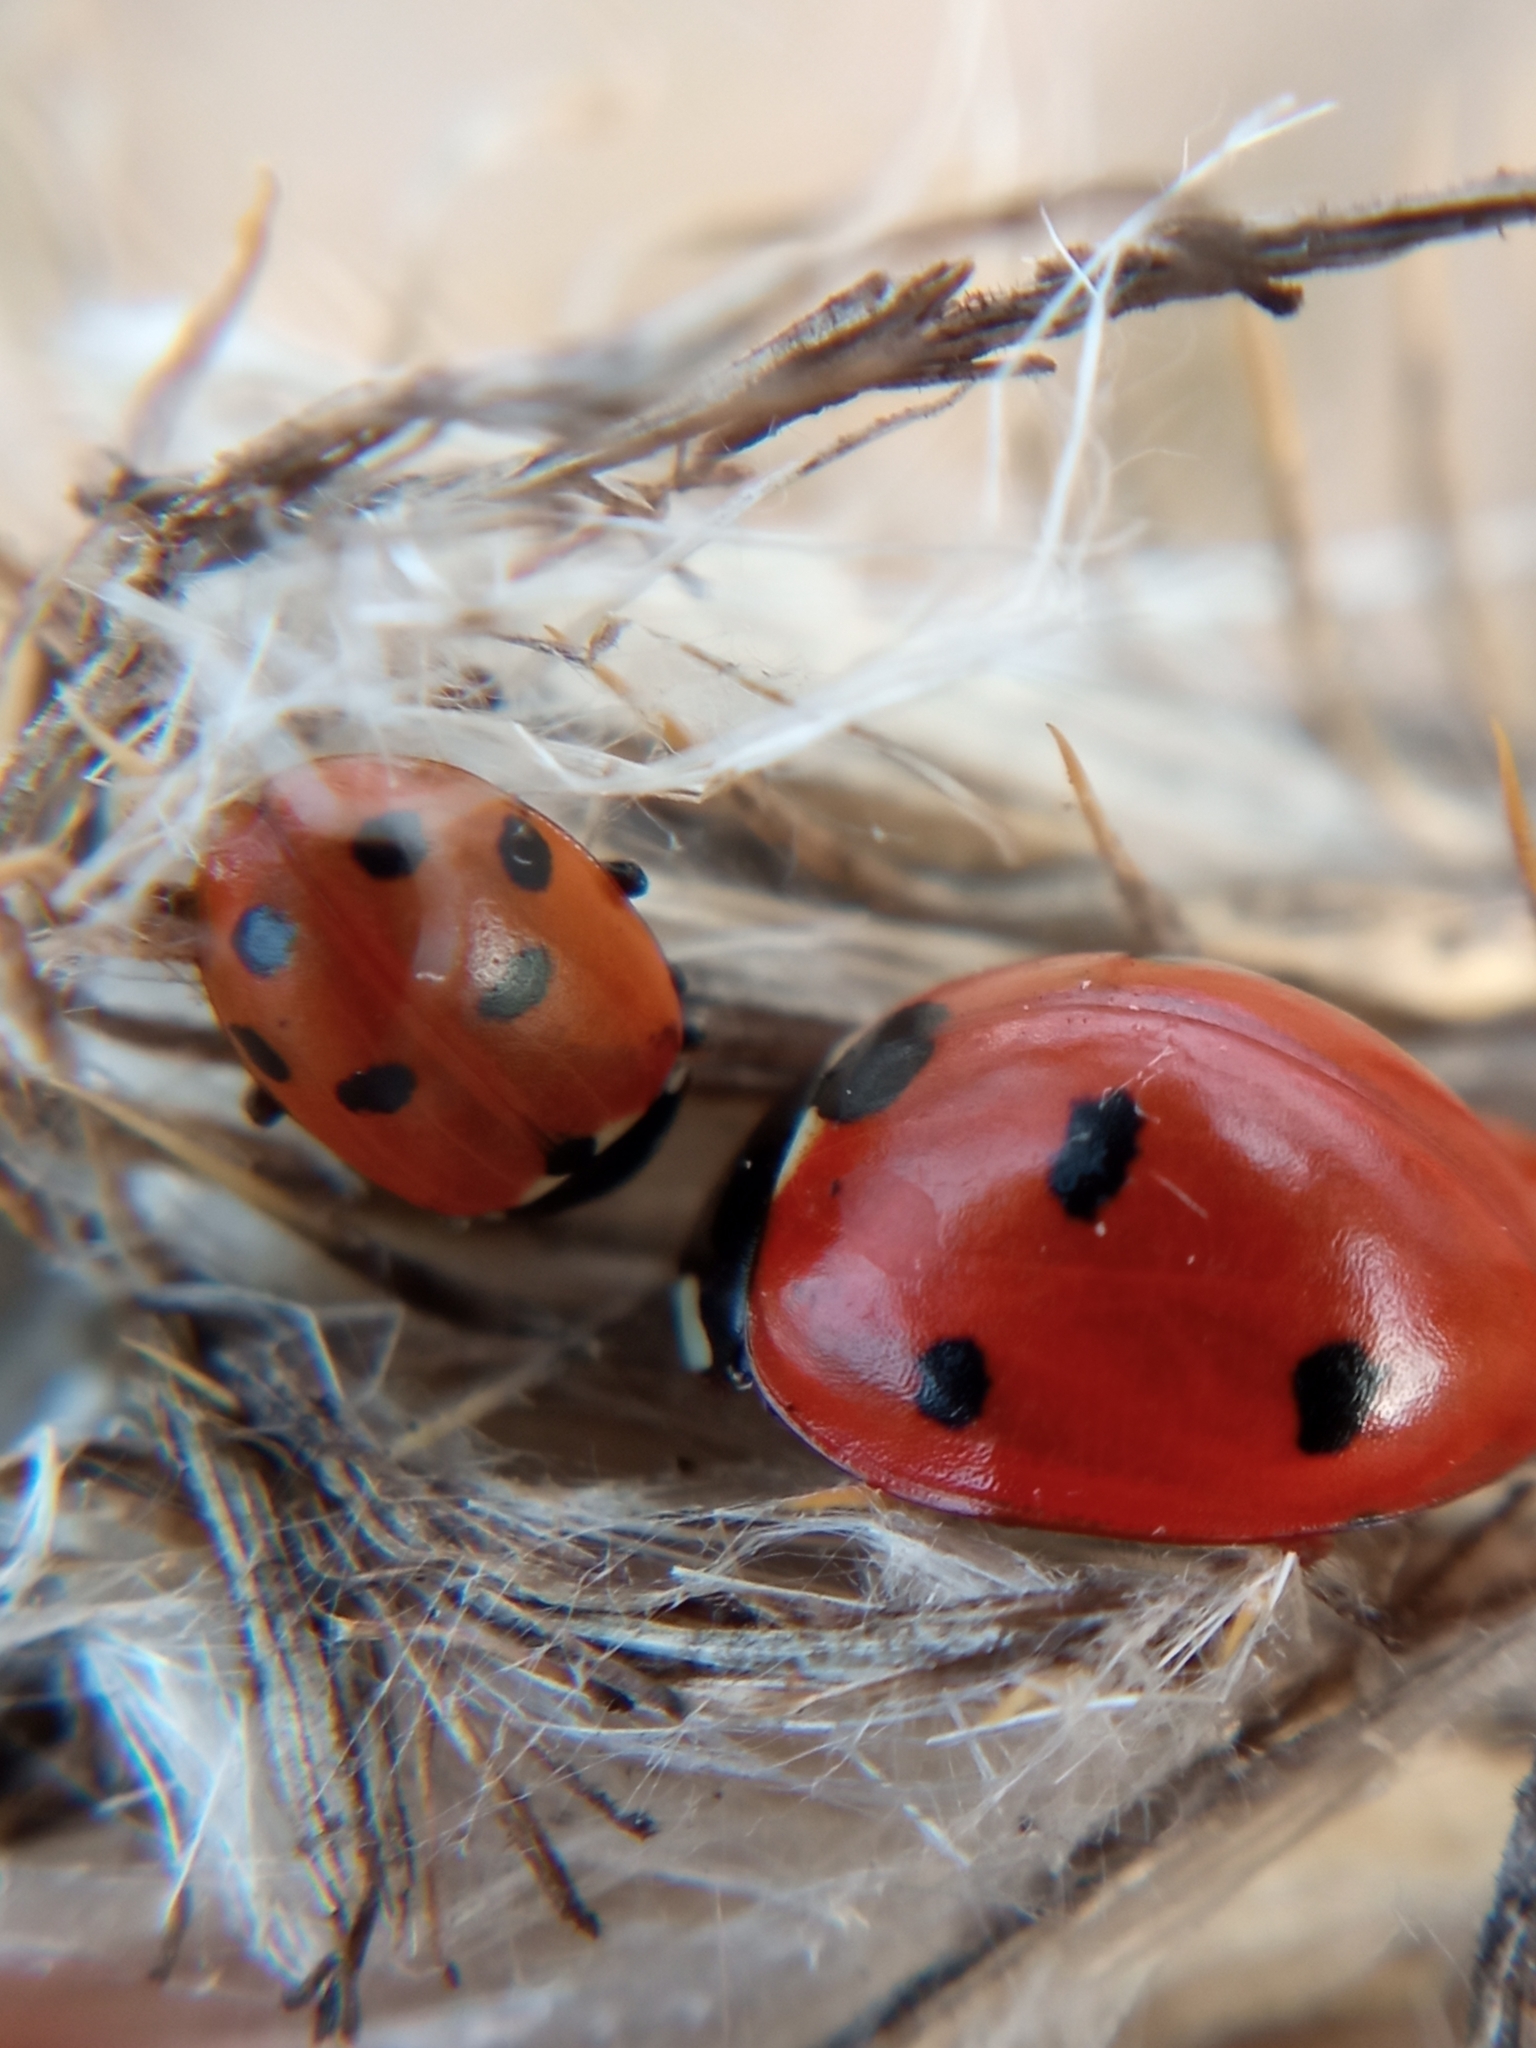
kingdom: Animalia
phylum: Arthropoda
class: Insecta
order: Coleoptera
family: Coccinellidae
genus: Hippodamia
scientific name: Hippodamia variegata
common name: Ladybird beetle
